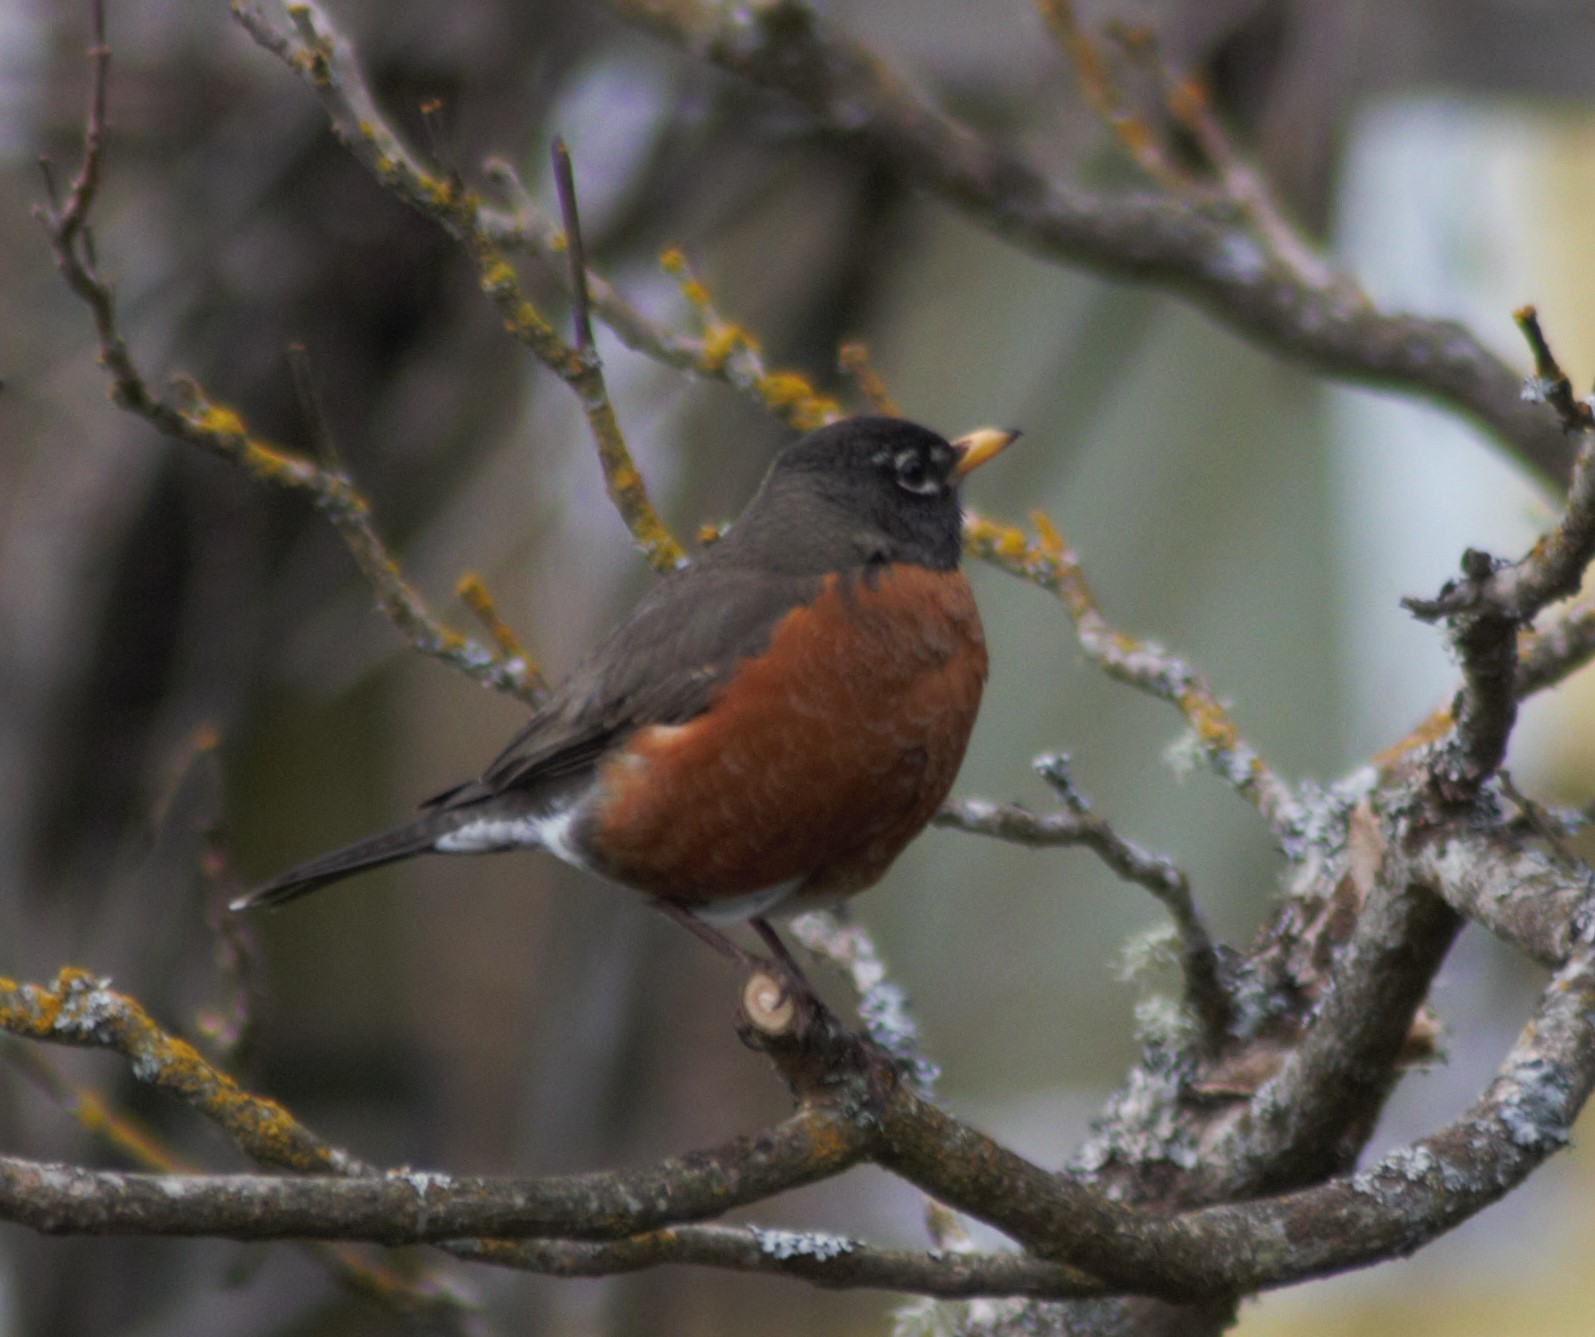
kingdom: Animalia
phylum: Chordata
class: Aves
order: Passeriformes
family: Turdidae
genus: Turdus
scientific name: Turdus migratorius
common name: American robin
